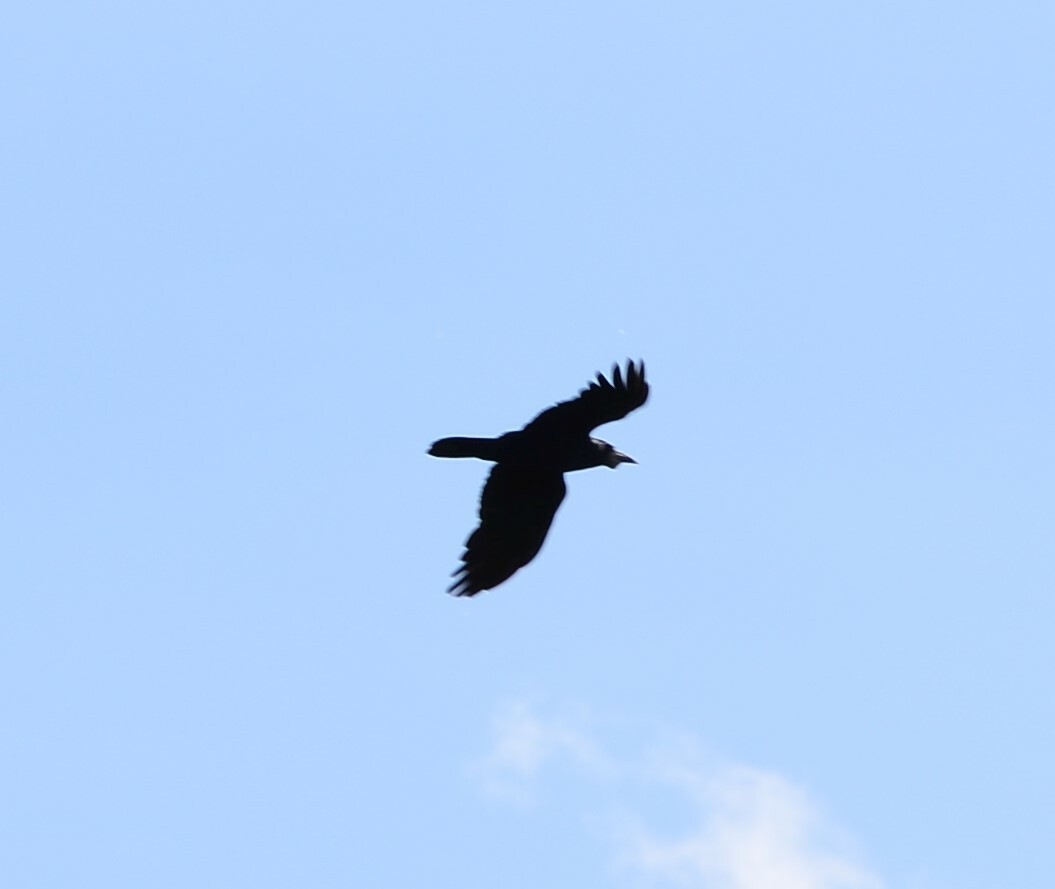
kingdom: Animalia
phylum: Chordata
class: Aves
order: Passeriformes
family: Corvidae
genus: Corvus
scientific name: Corvus frugilegus
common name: Rook
